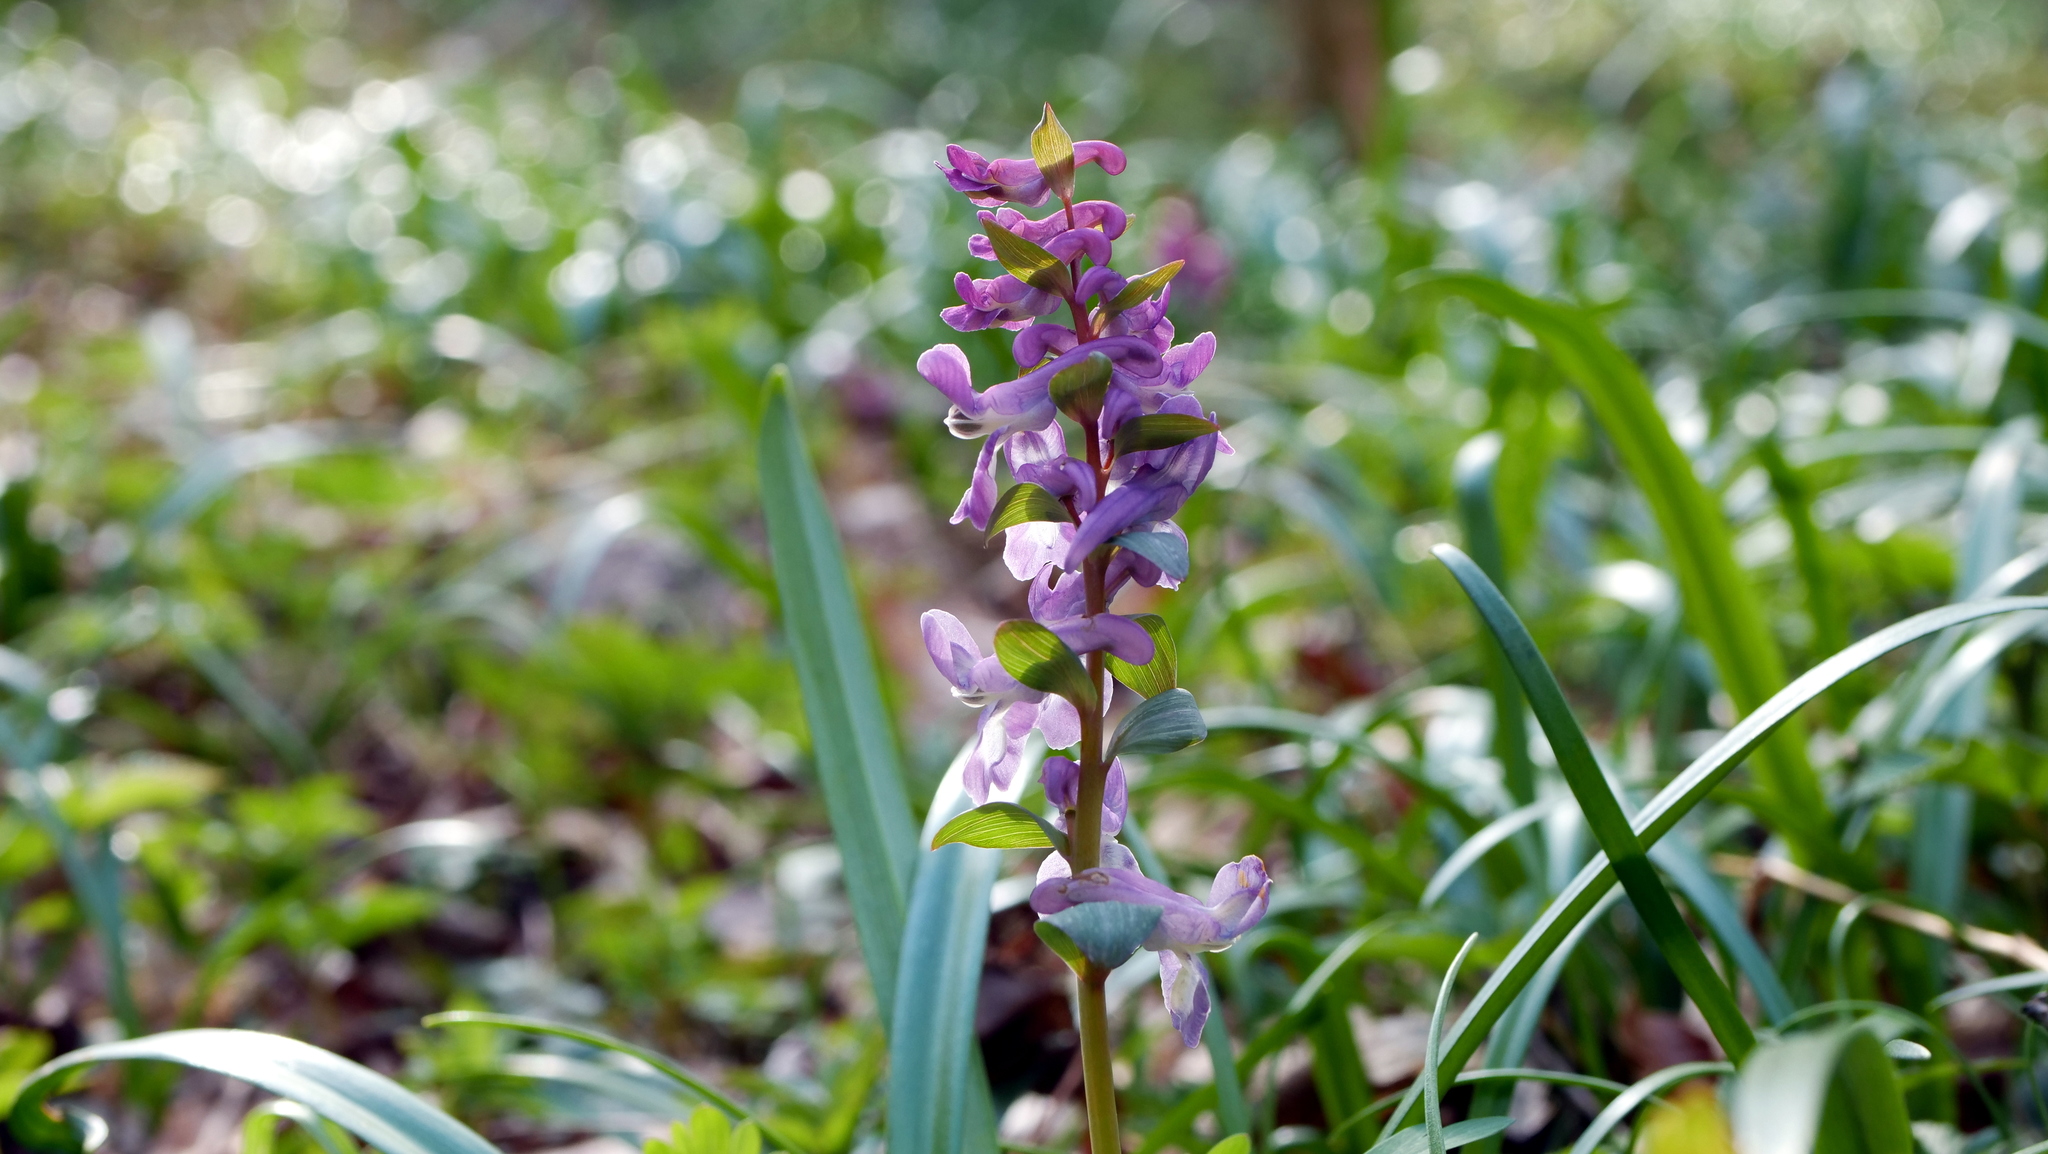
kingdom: Plantae
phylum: Tracheophyta
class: Magnoliopsida
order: Ranunculales
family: Papaveraceae
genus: Corydalis
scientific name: Corydalis cava
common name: Hollowroot
